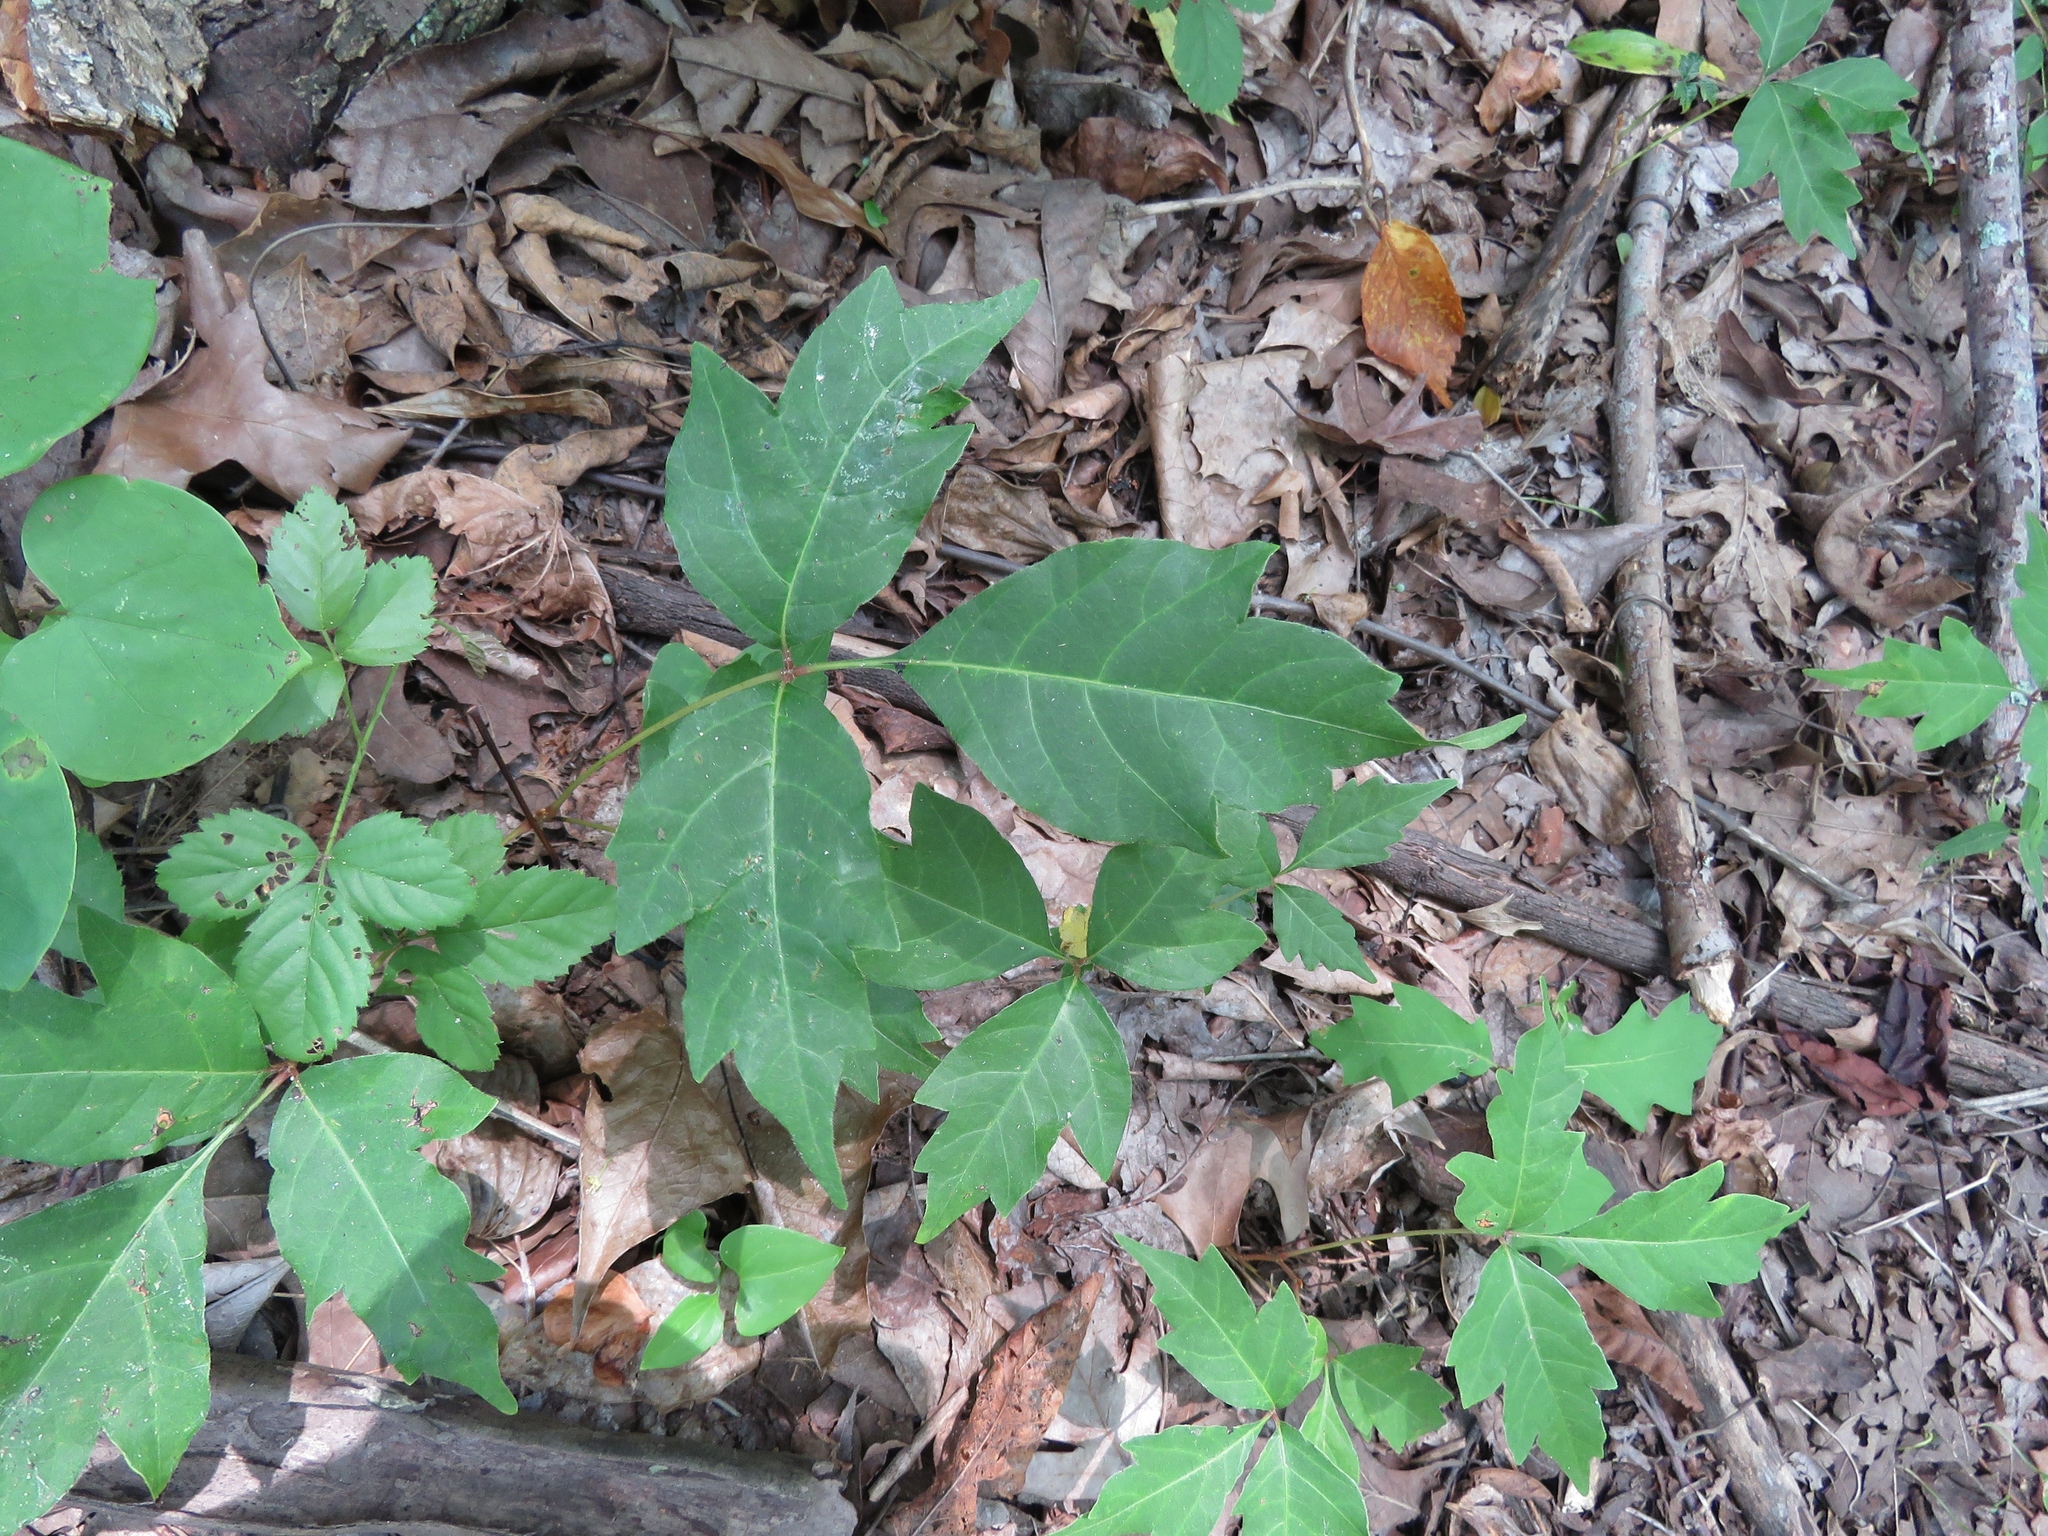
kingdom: Plantae
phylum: Tracheophyta
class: Magnoliopsida
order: Sapindales
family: Anacardiaceae
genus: Toxicodendron
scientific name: Toxicodendron radicans
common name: Poison ivy
